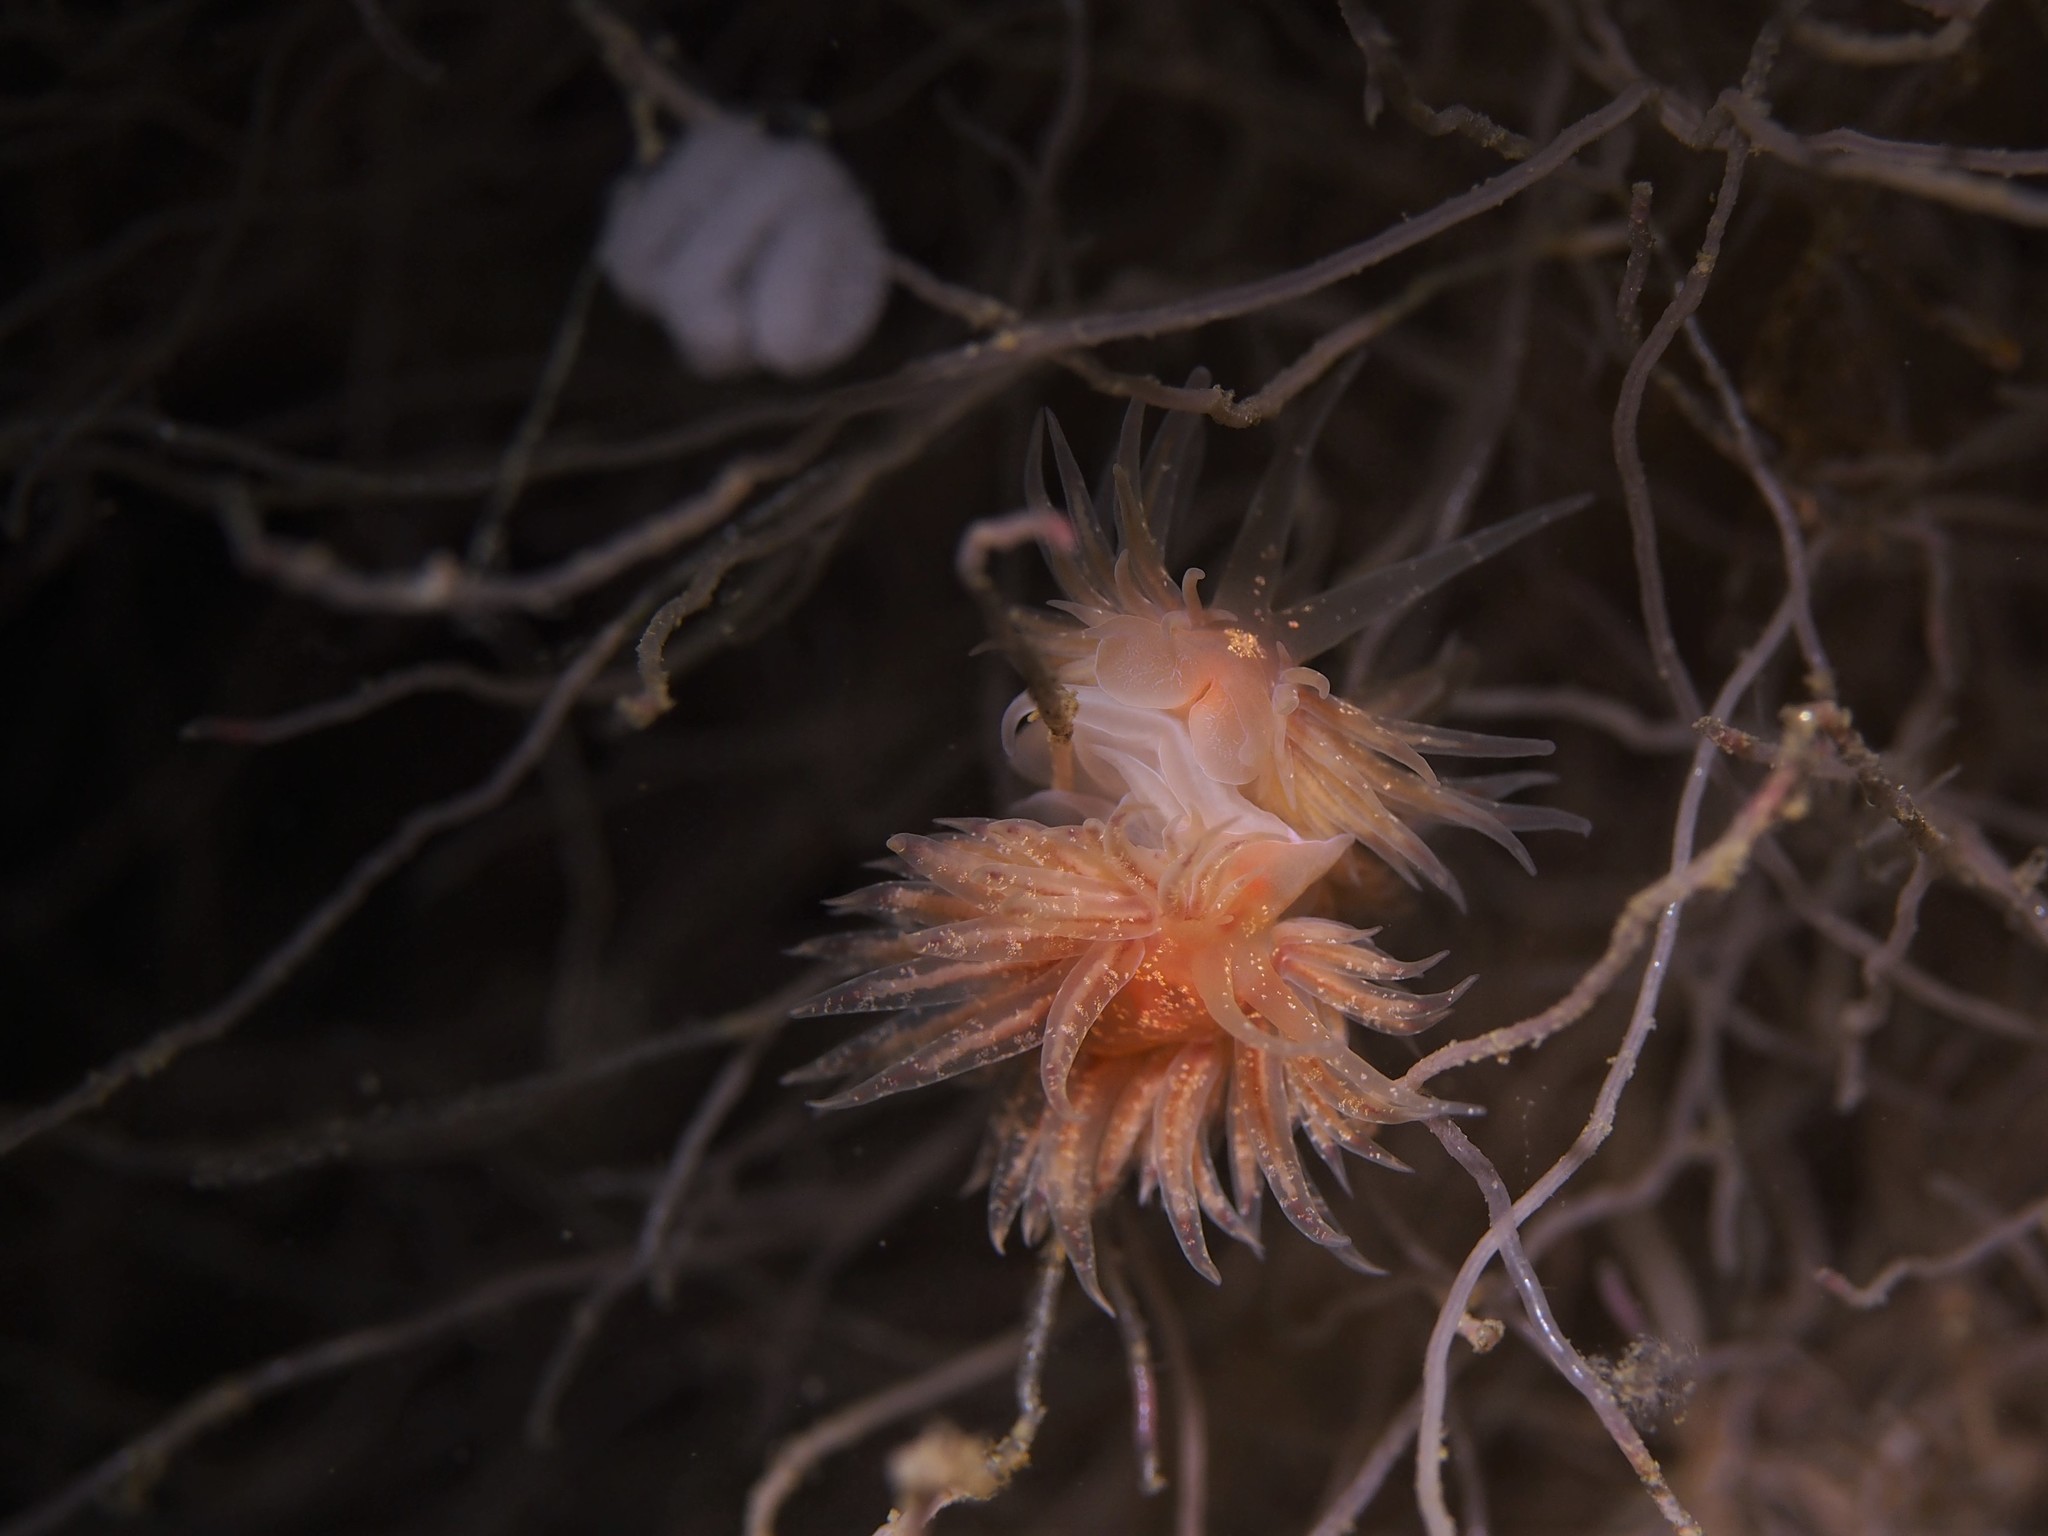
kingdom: Animalia
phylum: Mollusca
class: Gastropoda
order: Nudibranchia
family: Cumanotidae
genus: Cumanotus
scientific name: Cumanotus beaumonti
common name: Polyp aeolis
